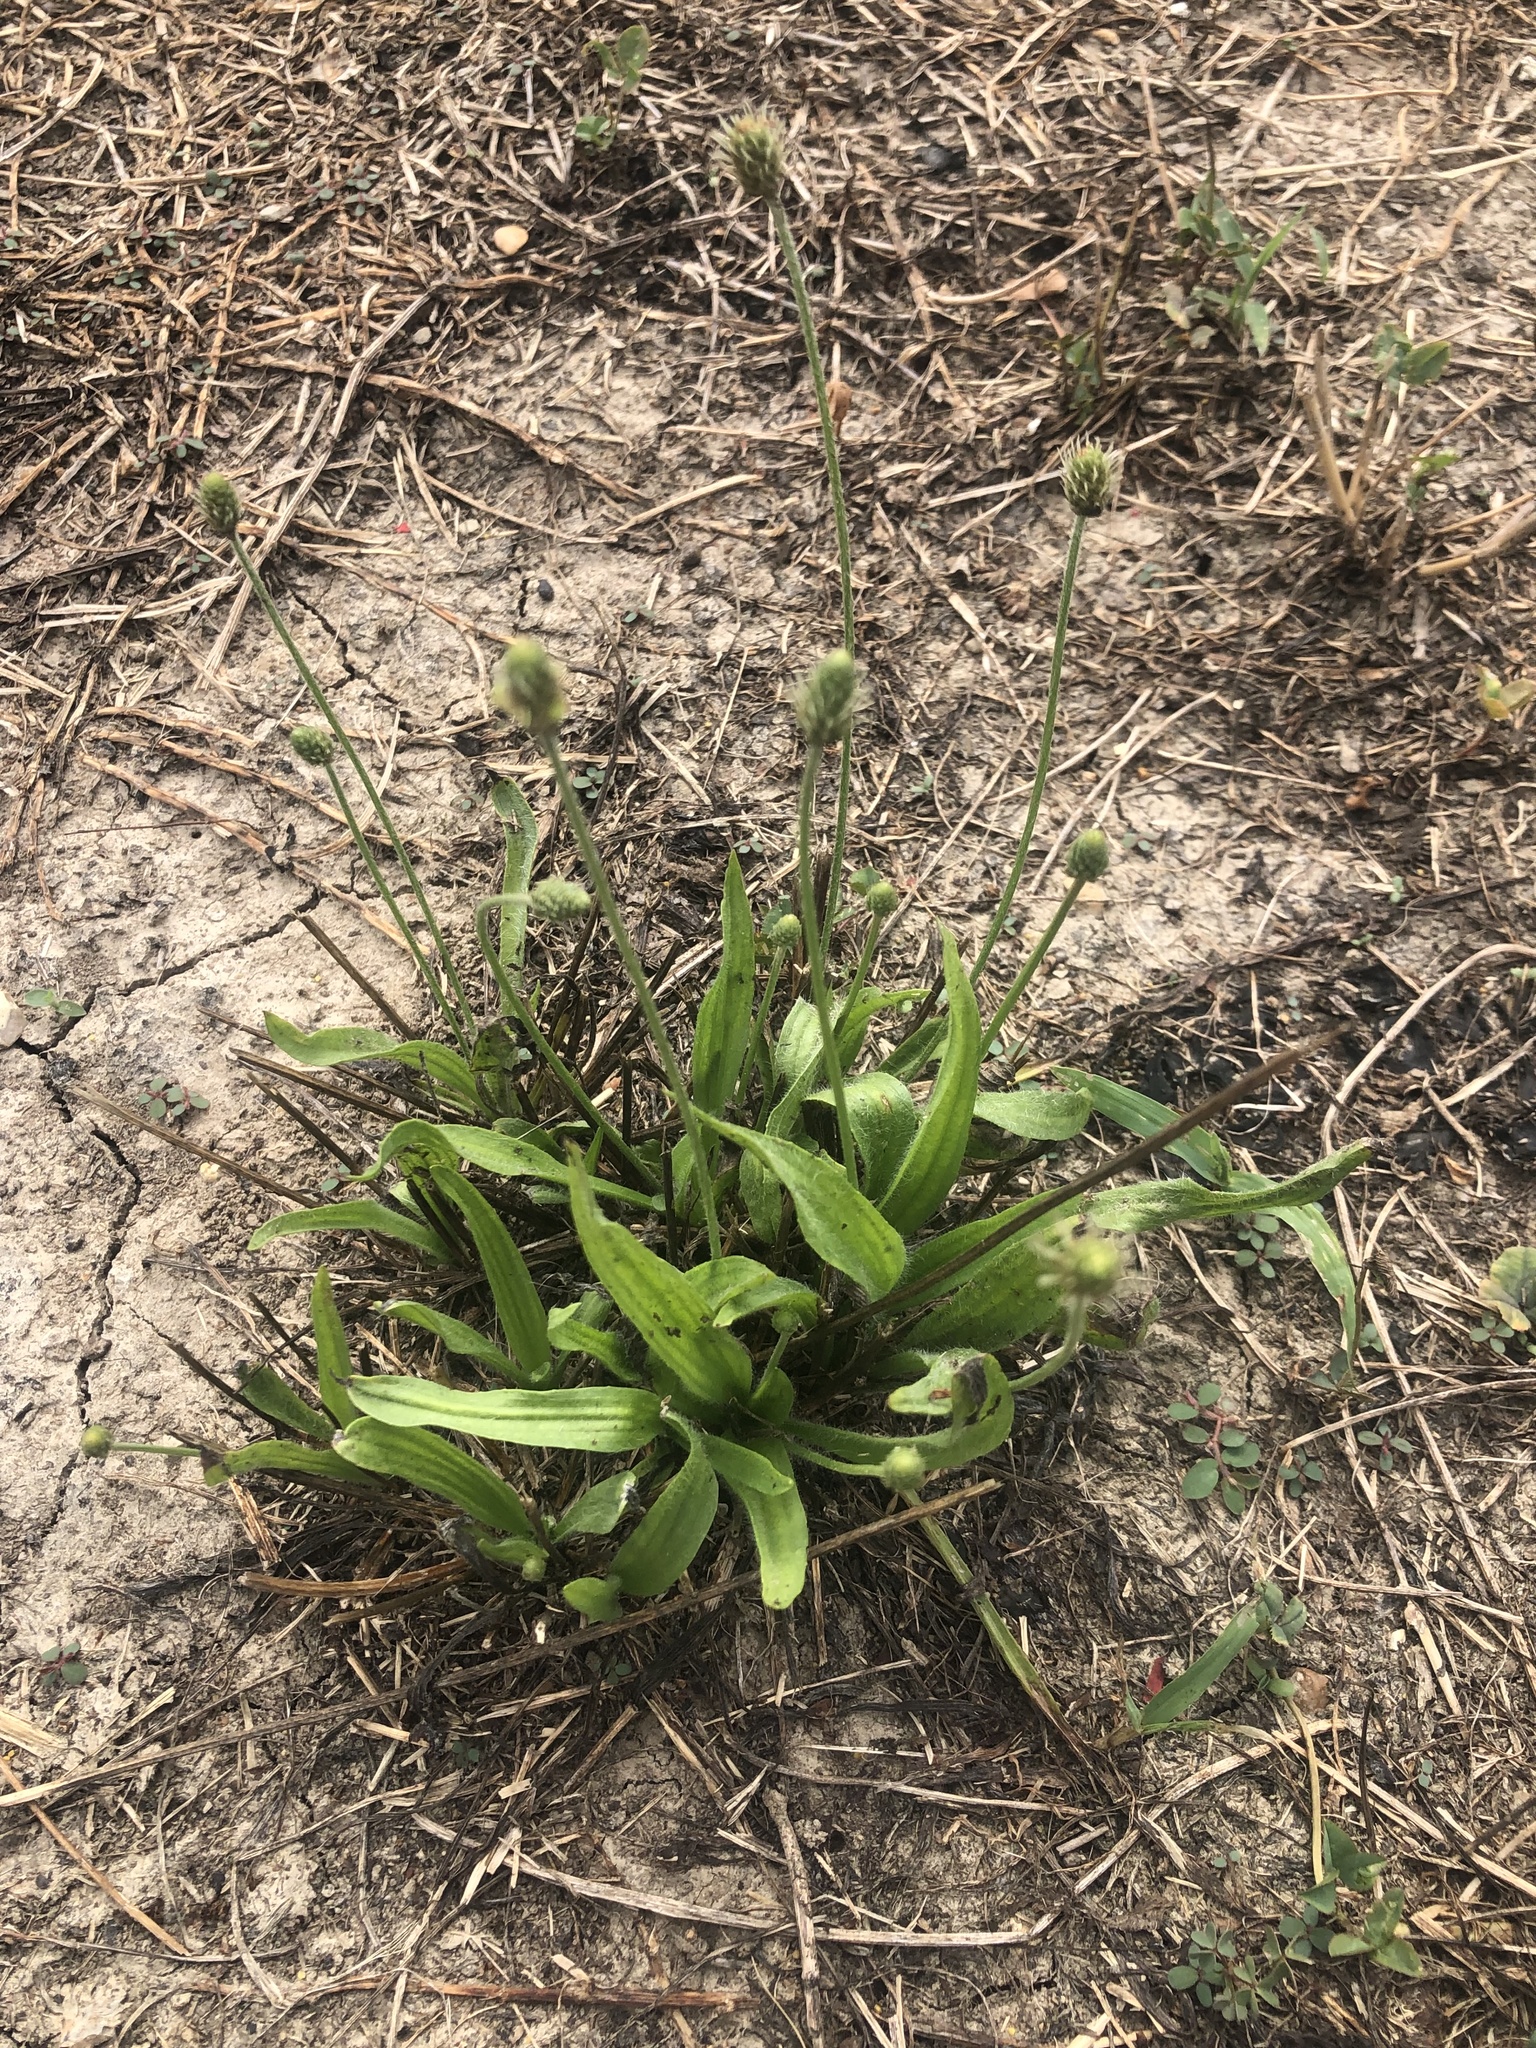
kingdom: Plantae
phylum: Tracheophyta
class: Magnoliopsida
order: Lamiales
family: Plantaginaceae
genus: Plantago
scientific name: Plantago lanceolata
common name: Ribwort plantain
